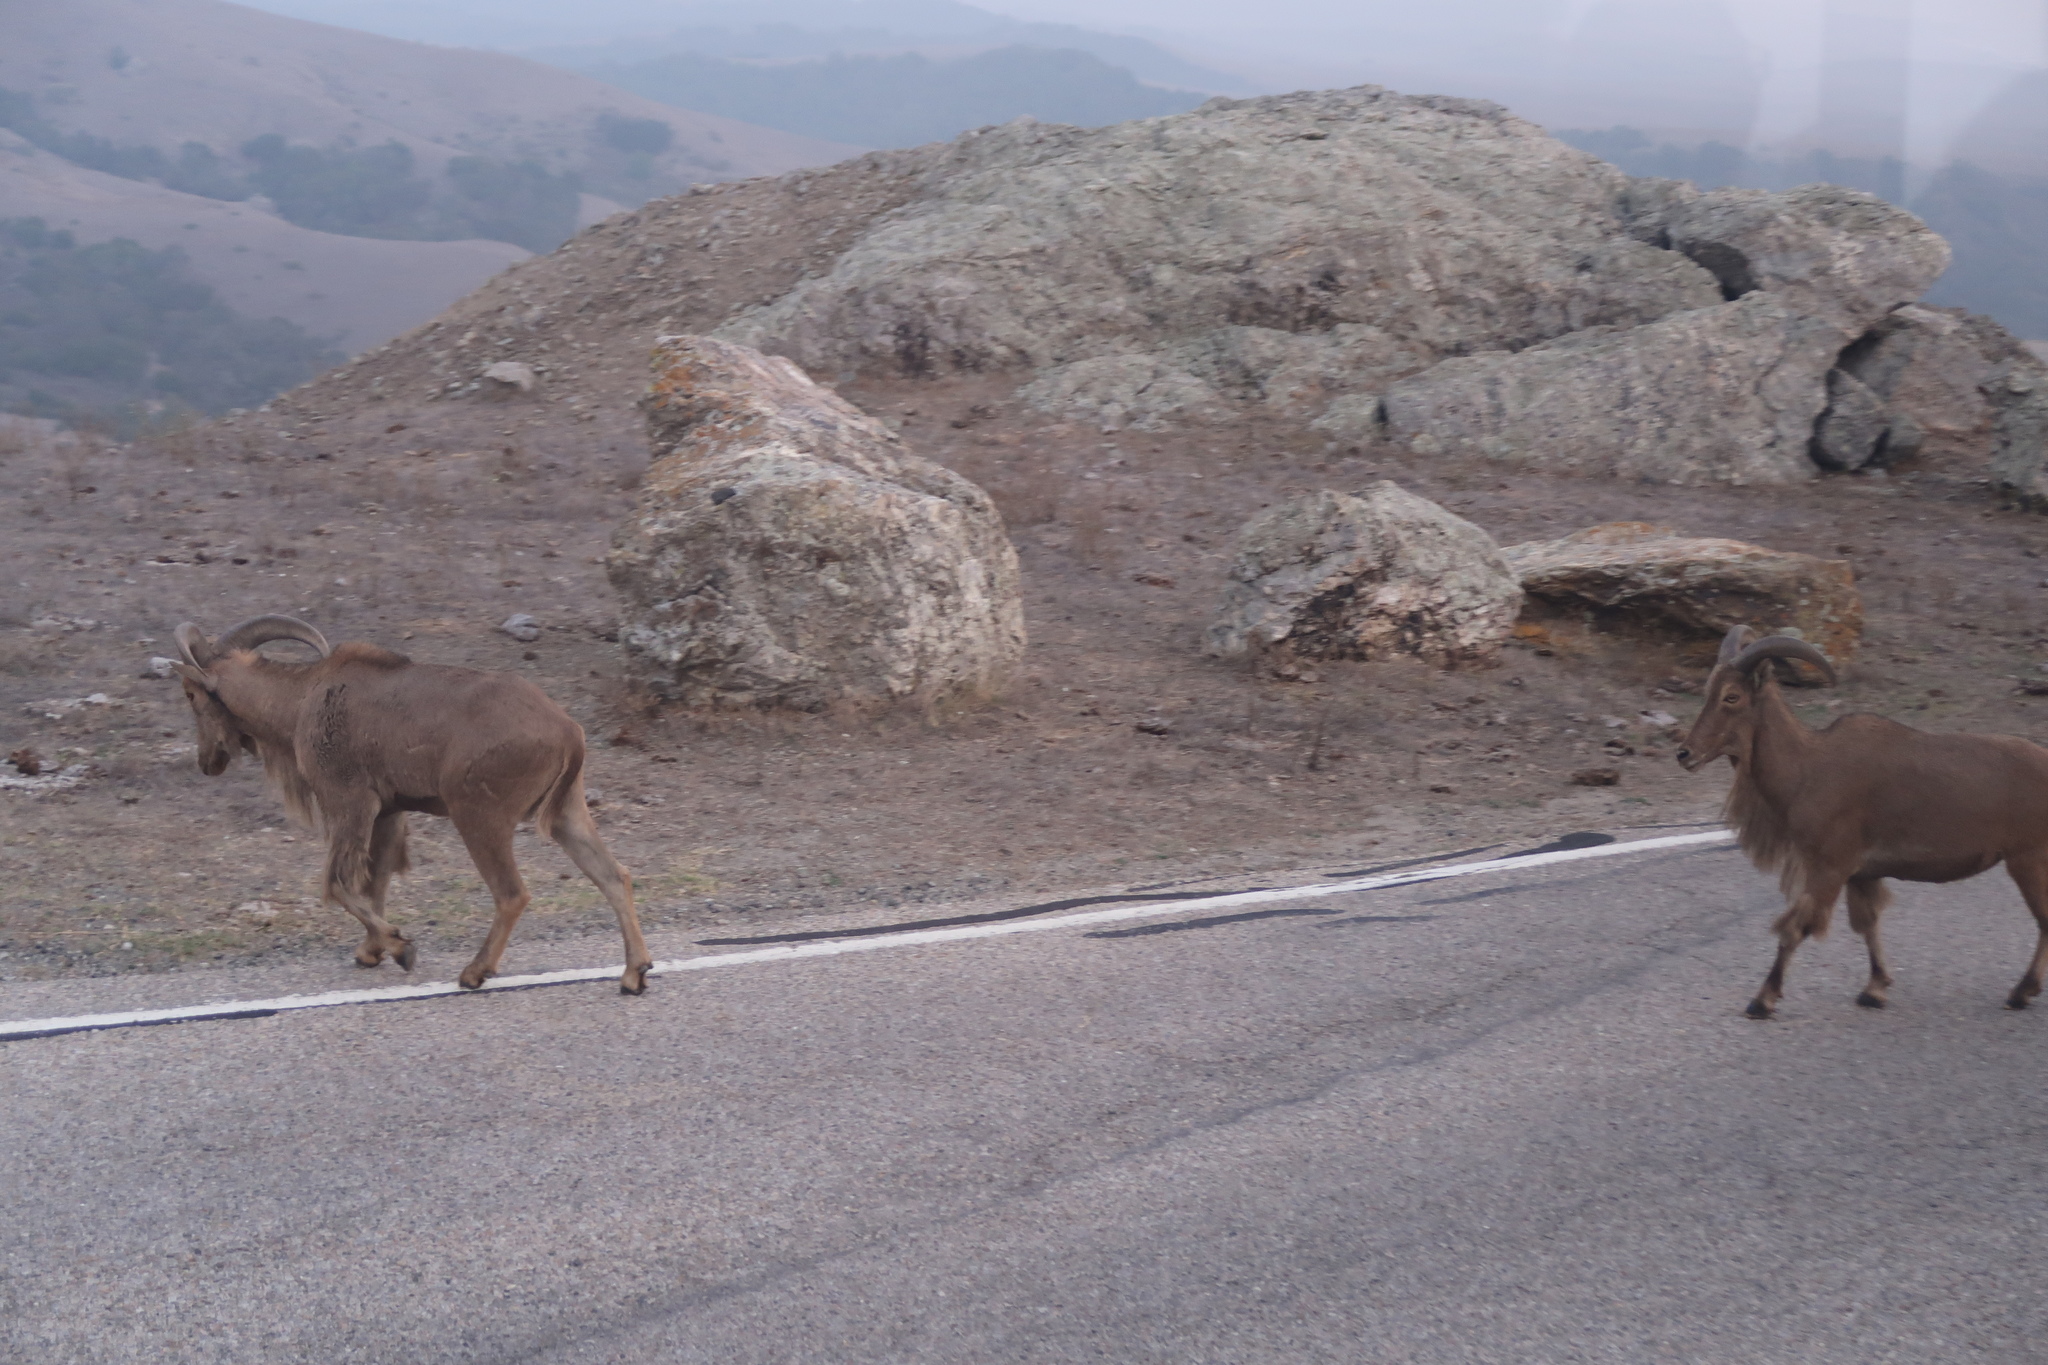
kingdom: Animalia
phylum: Chordata
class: Mammalia
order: Artiodactyla
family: Bovidae
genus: Ammotragus
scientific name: Ammotragus lervia
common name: Barbary sheep
